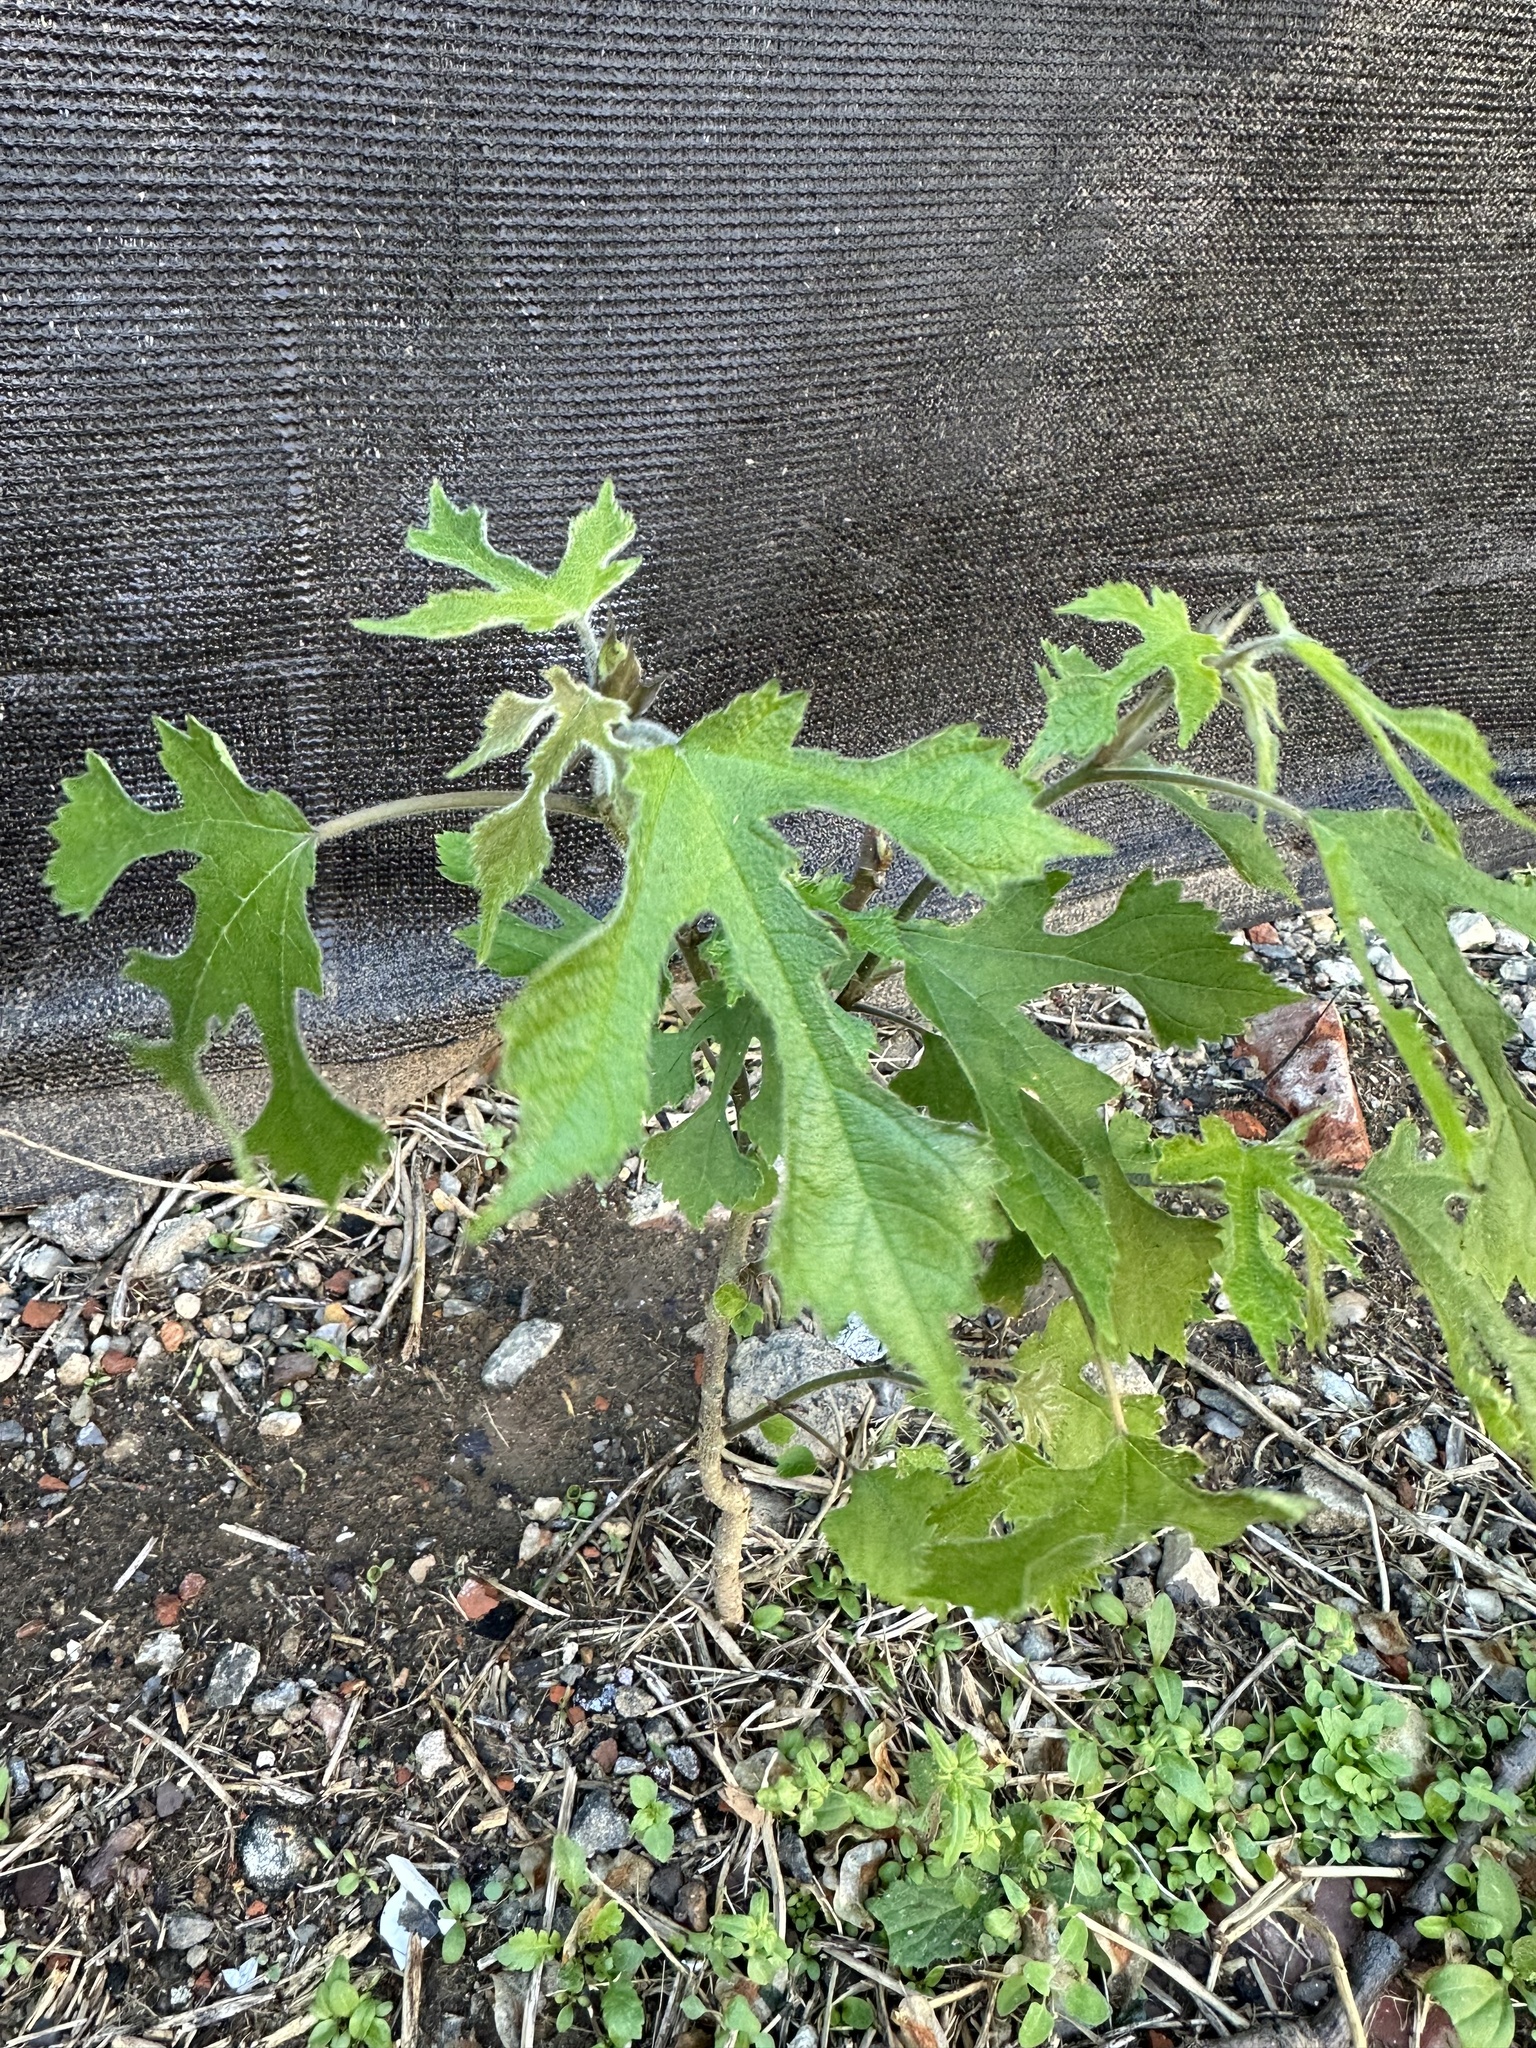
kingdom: Plantae
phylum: Tracheophyta
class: Magnoliopsida
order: Rosales
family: Moraceae
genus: Broussonetia
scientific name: Broussonetia papyrifera
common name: Paper mulberry
